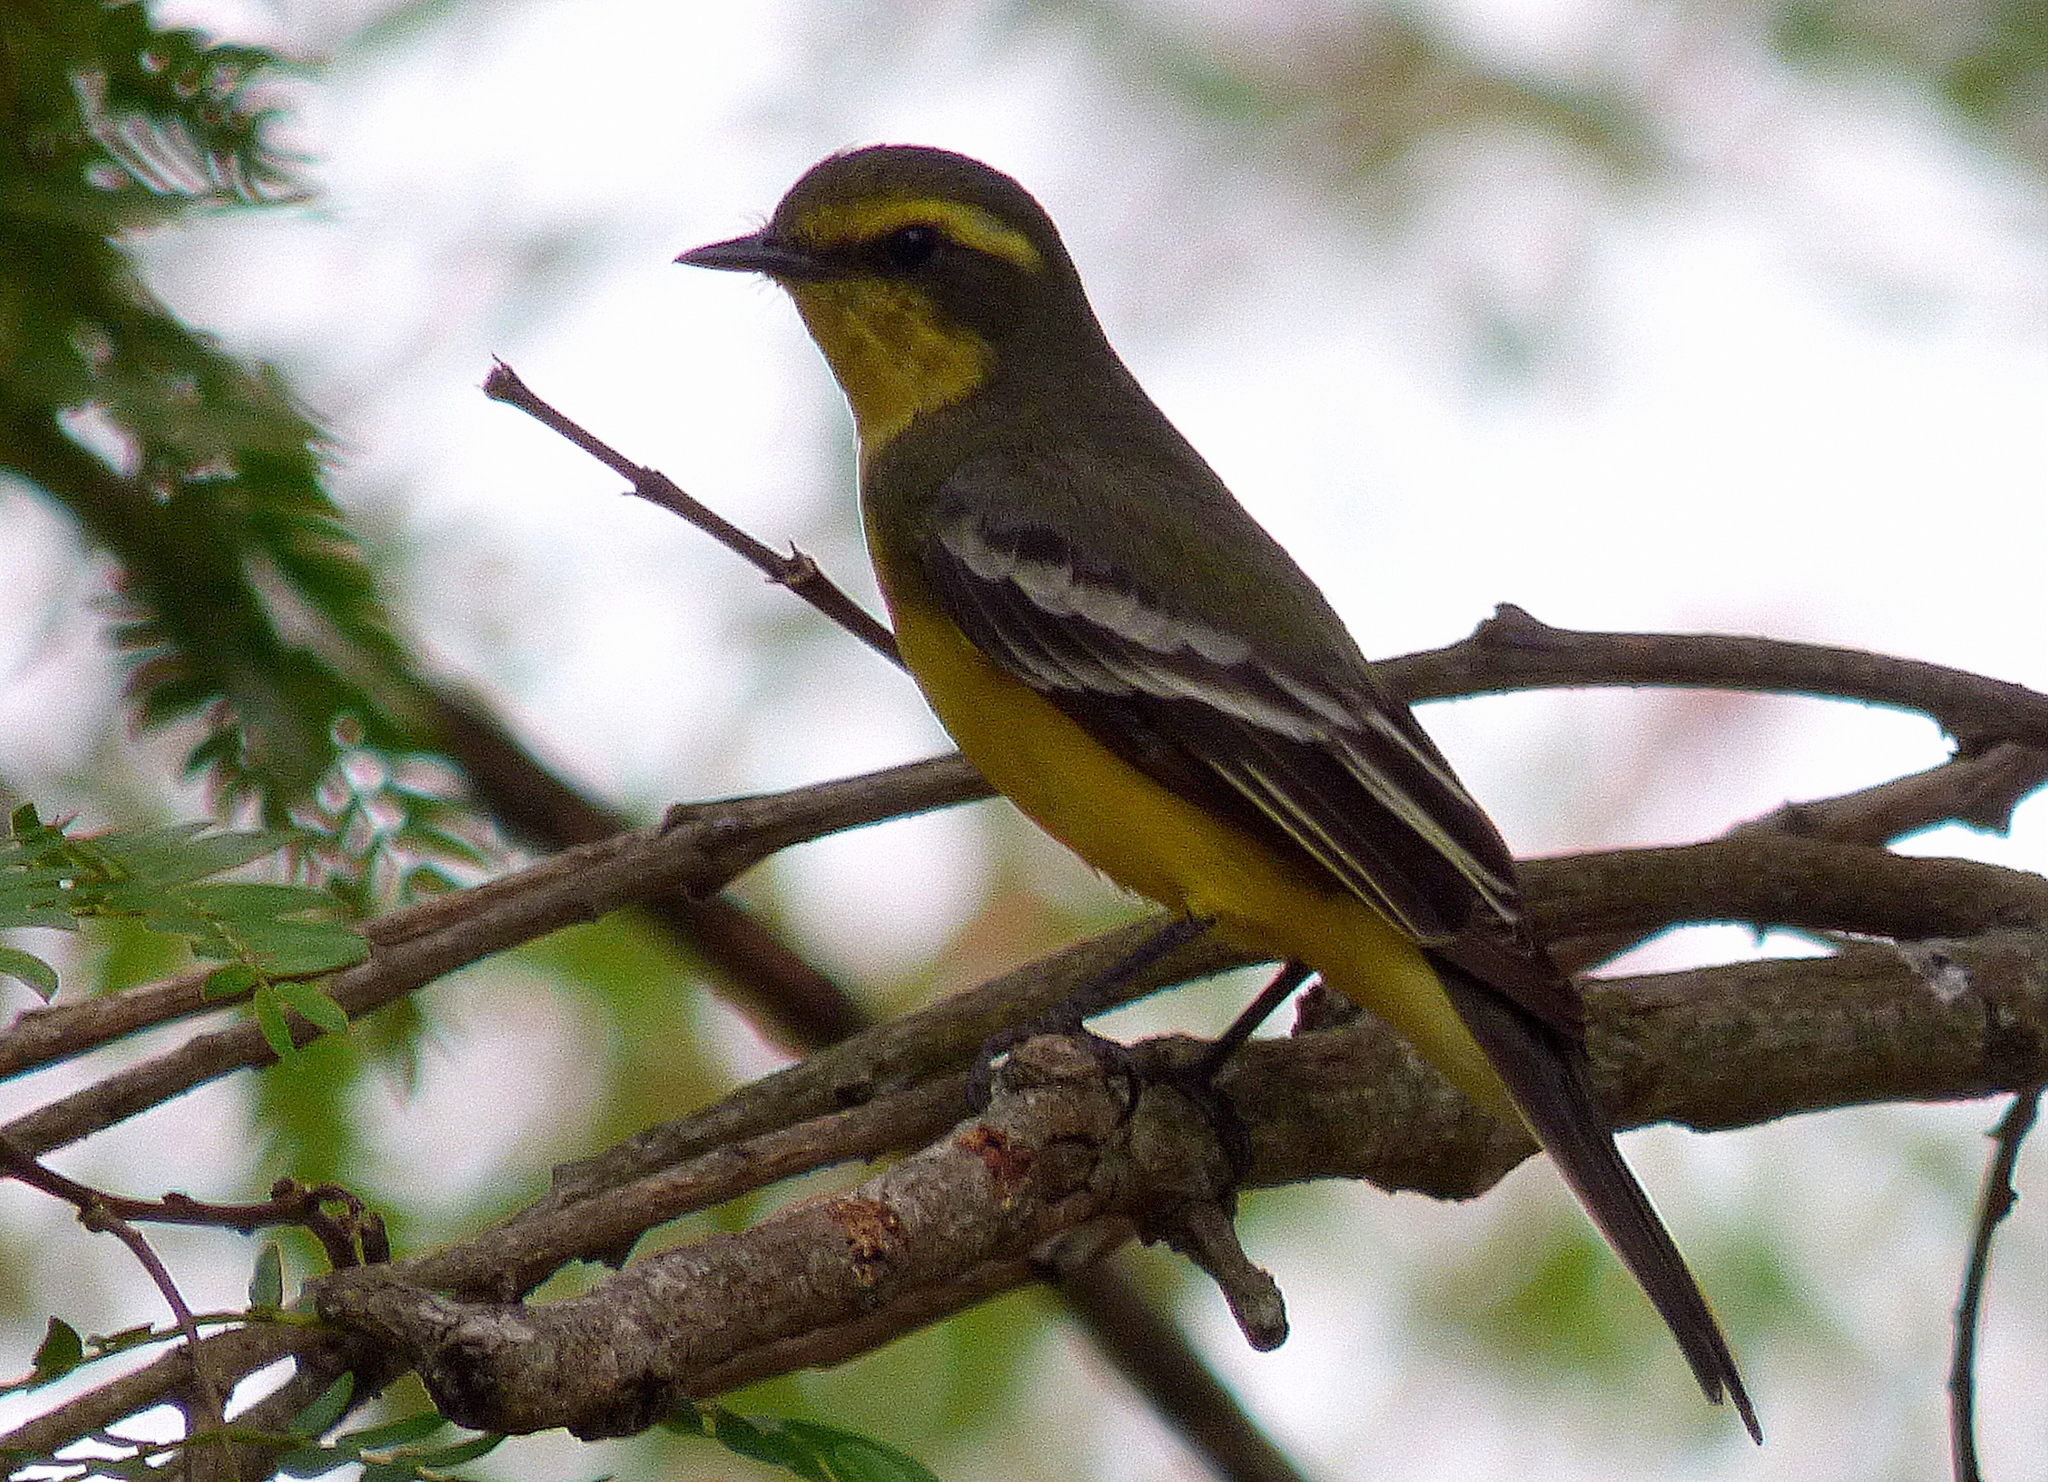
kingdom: Animalia
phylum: Chordata
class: Aves
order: Passeriformes
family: Tyrannidae
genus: Satrapa
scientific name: Satrapa icterophrys
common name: Yellow-browed tyrant
